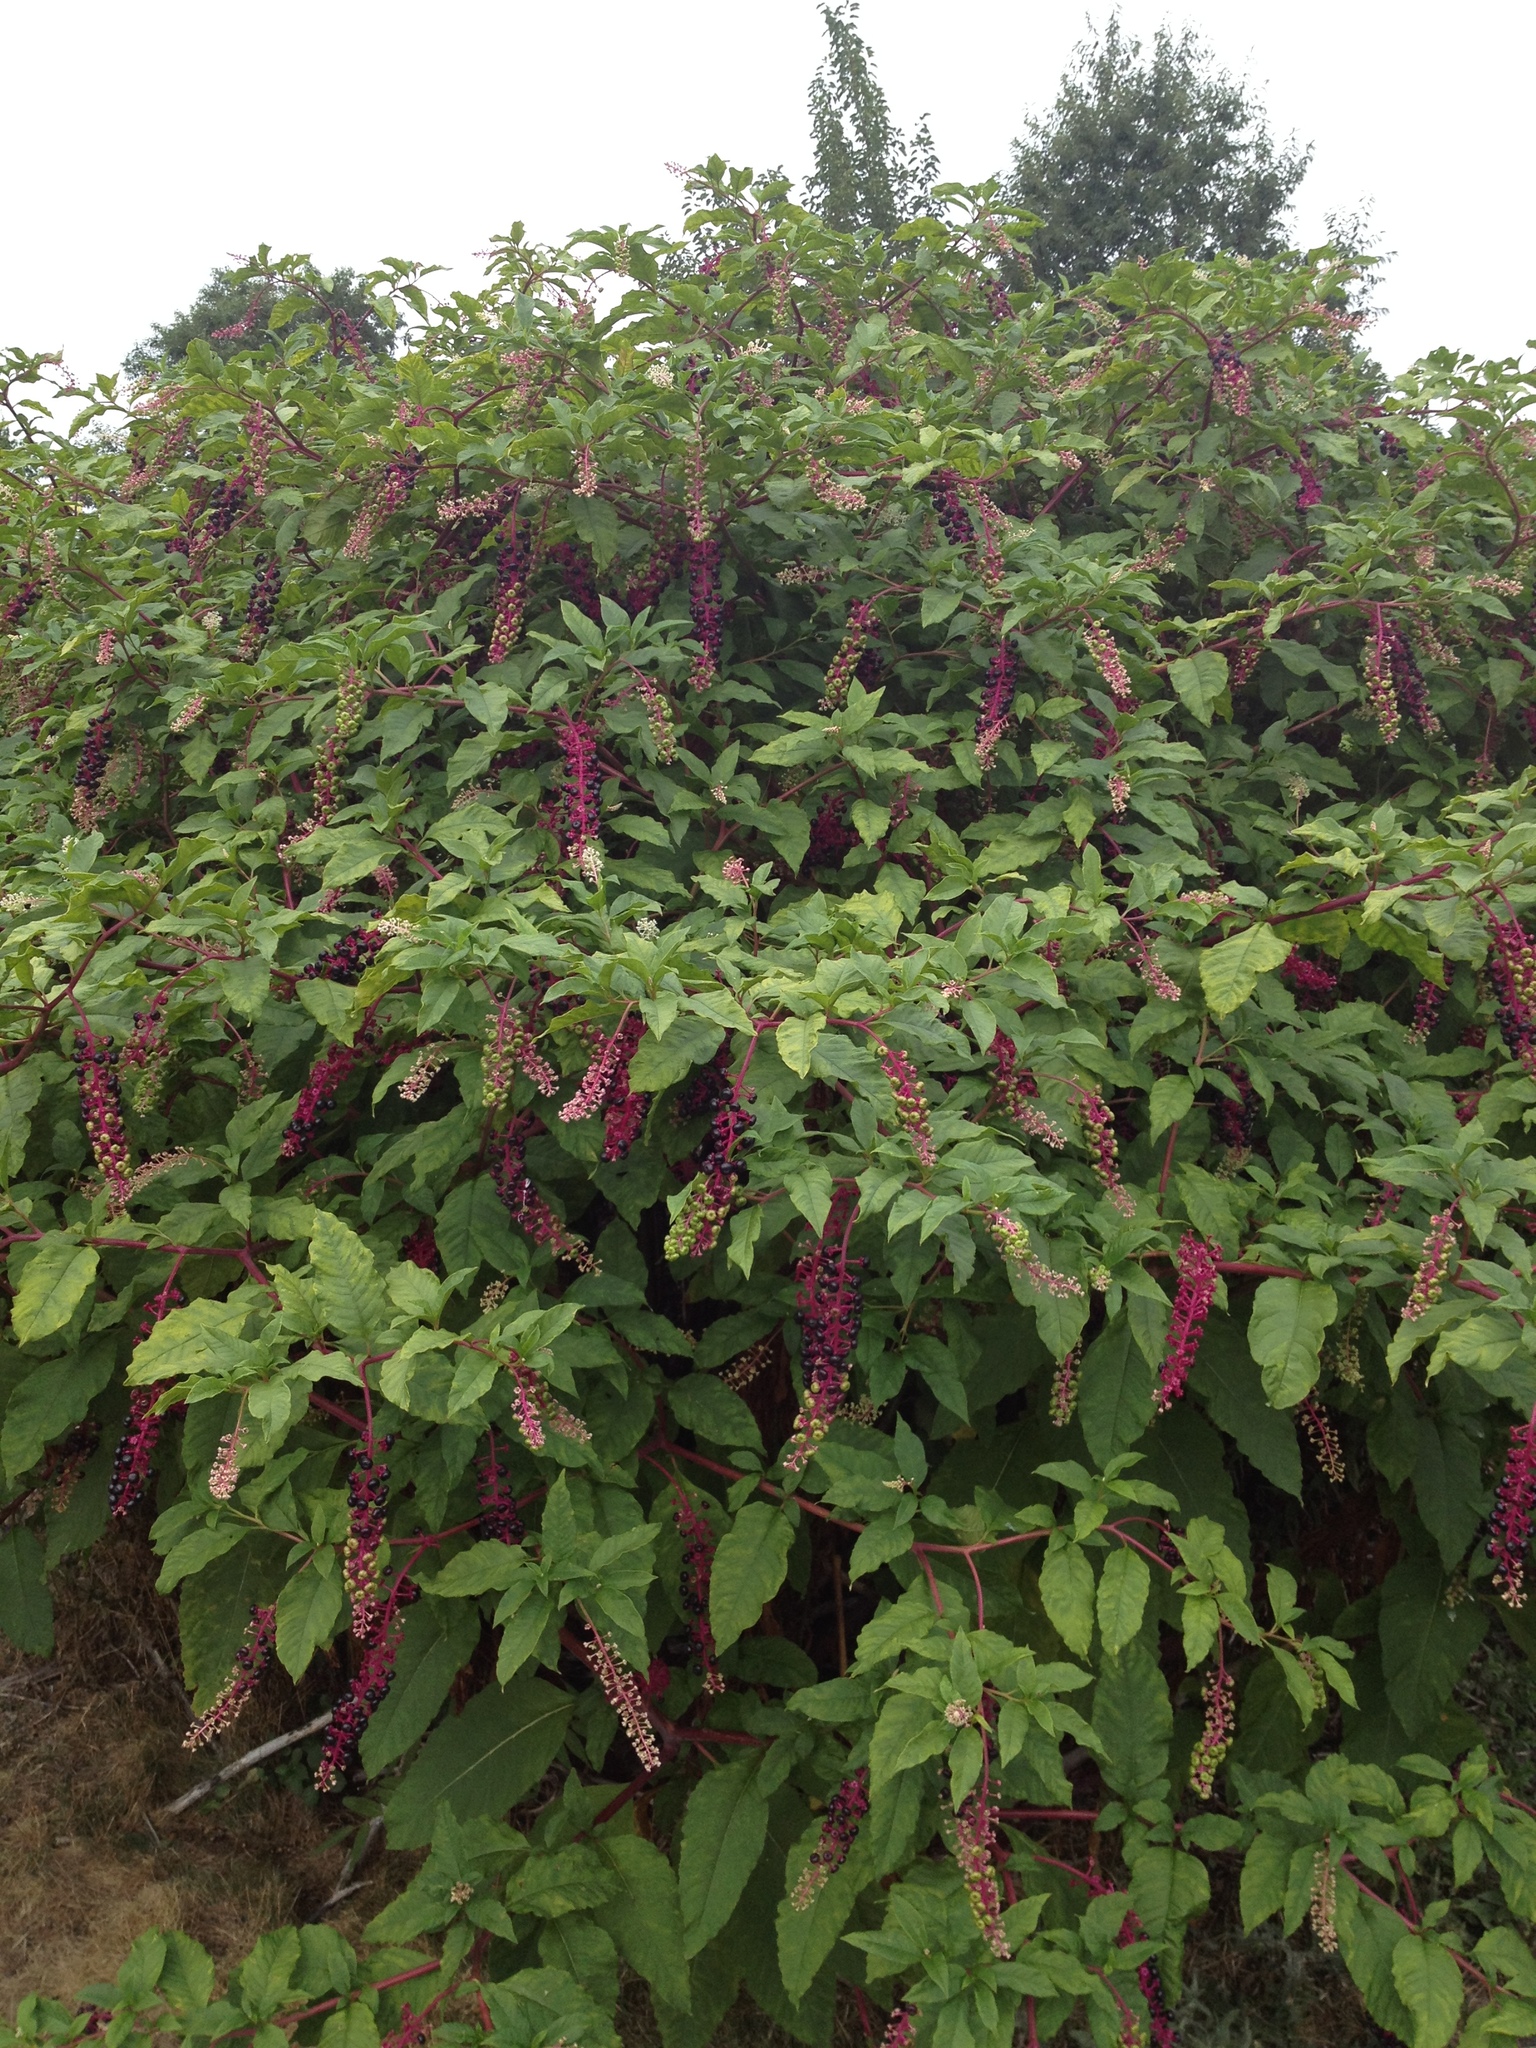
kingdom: Plantae
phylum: Tracheophyta
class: Magnoliopsida
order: Caryophyllales
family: Phytolaccaceae
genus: Phytolacca
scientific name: Phytolacca americana
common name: American pokeweed
